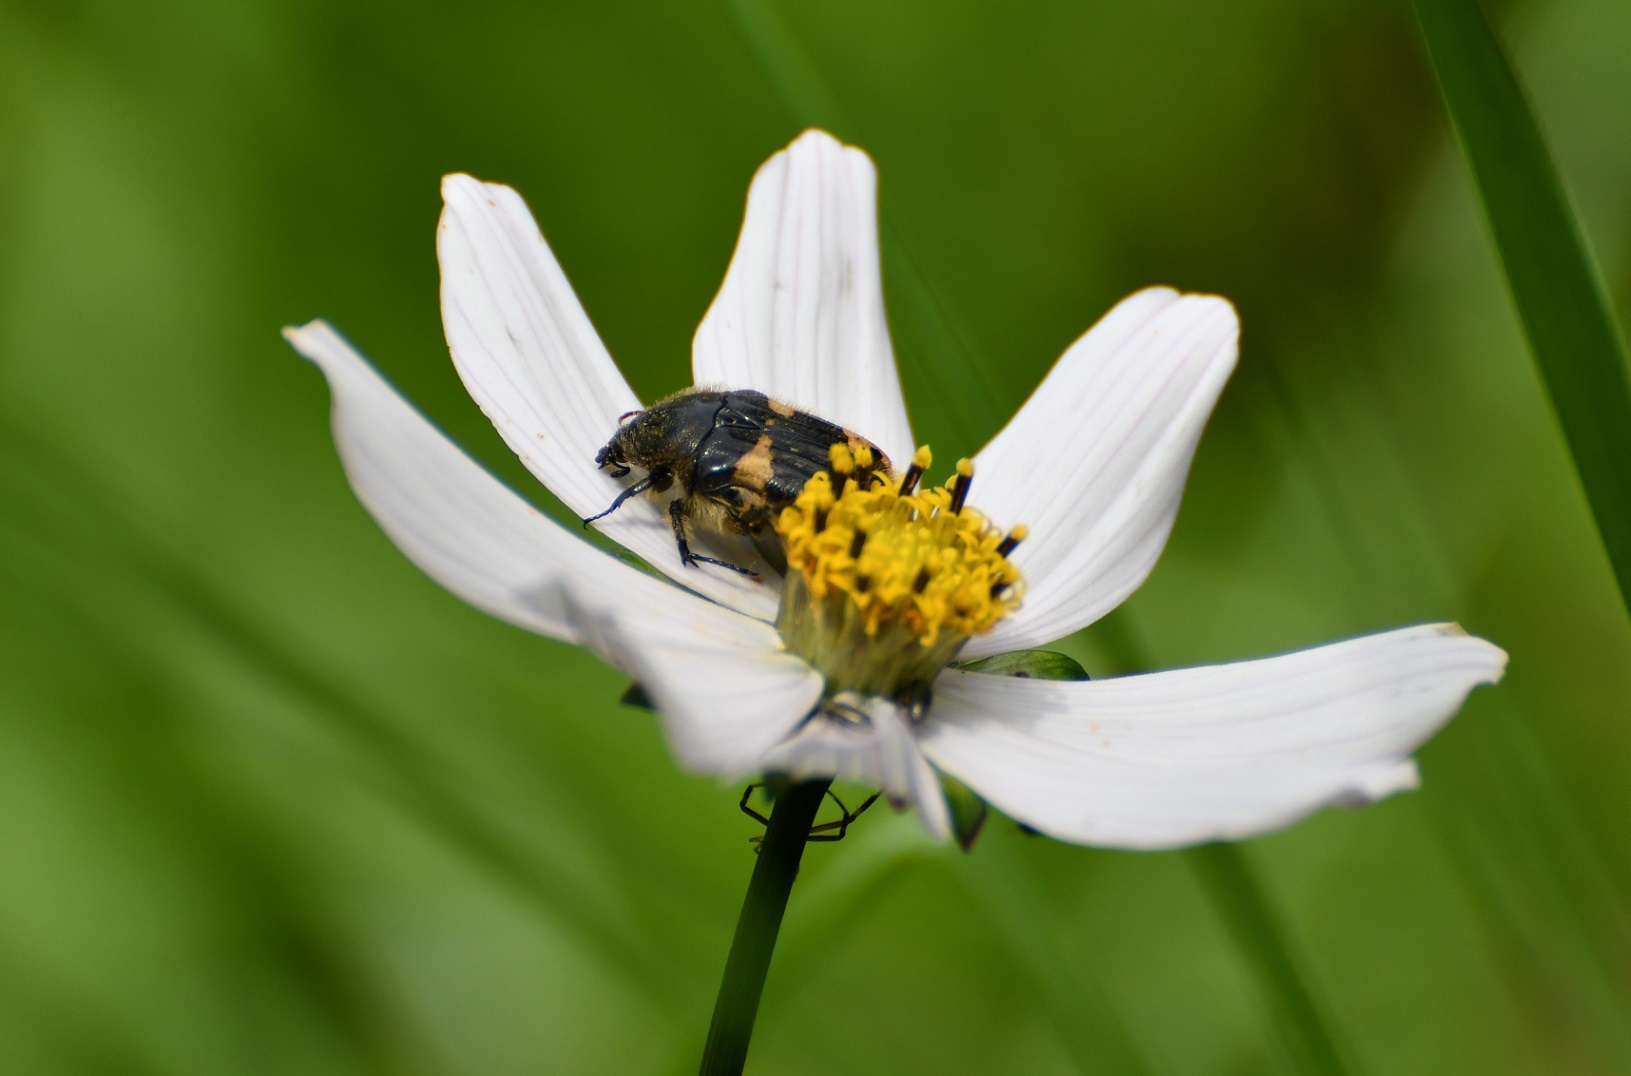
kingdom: Animalia
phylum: Arthropoda
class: Insecta
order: Coleoptera
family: Scarabaeidae
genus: Euphoria
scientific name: Euphoria basalis
